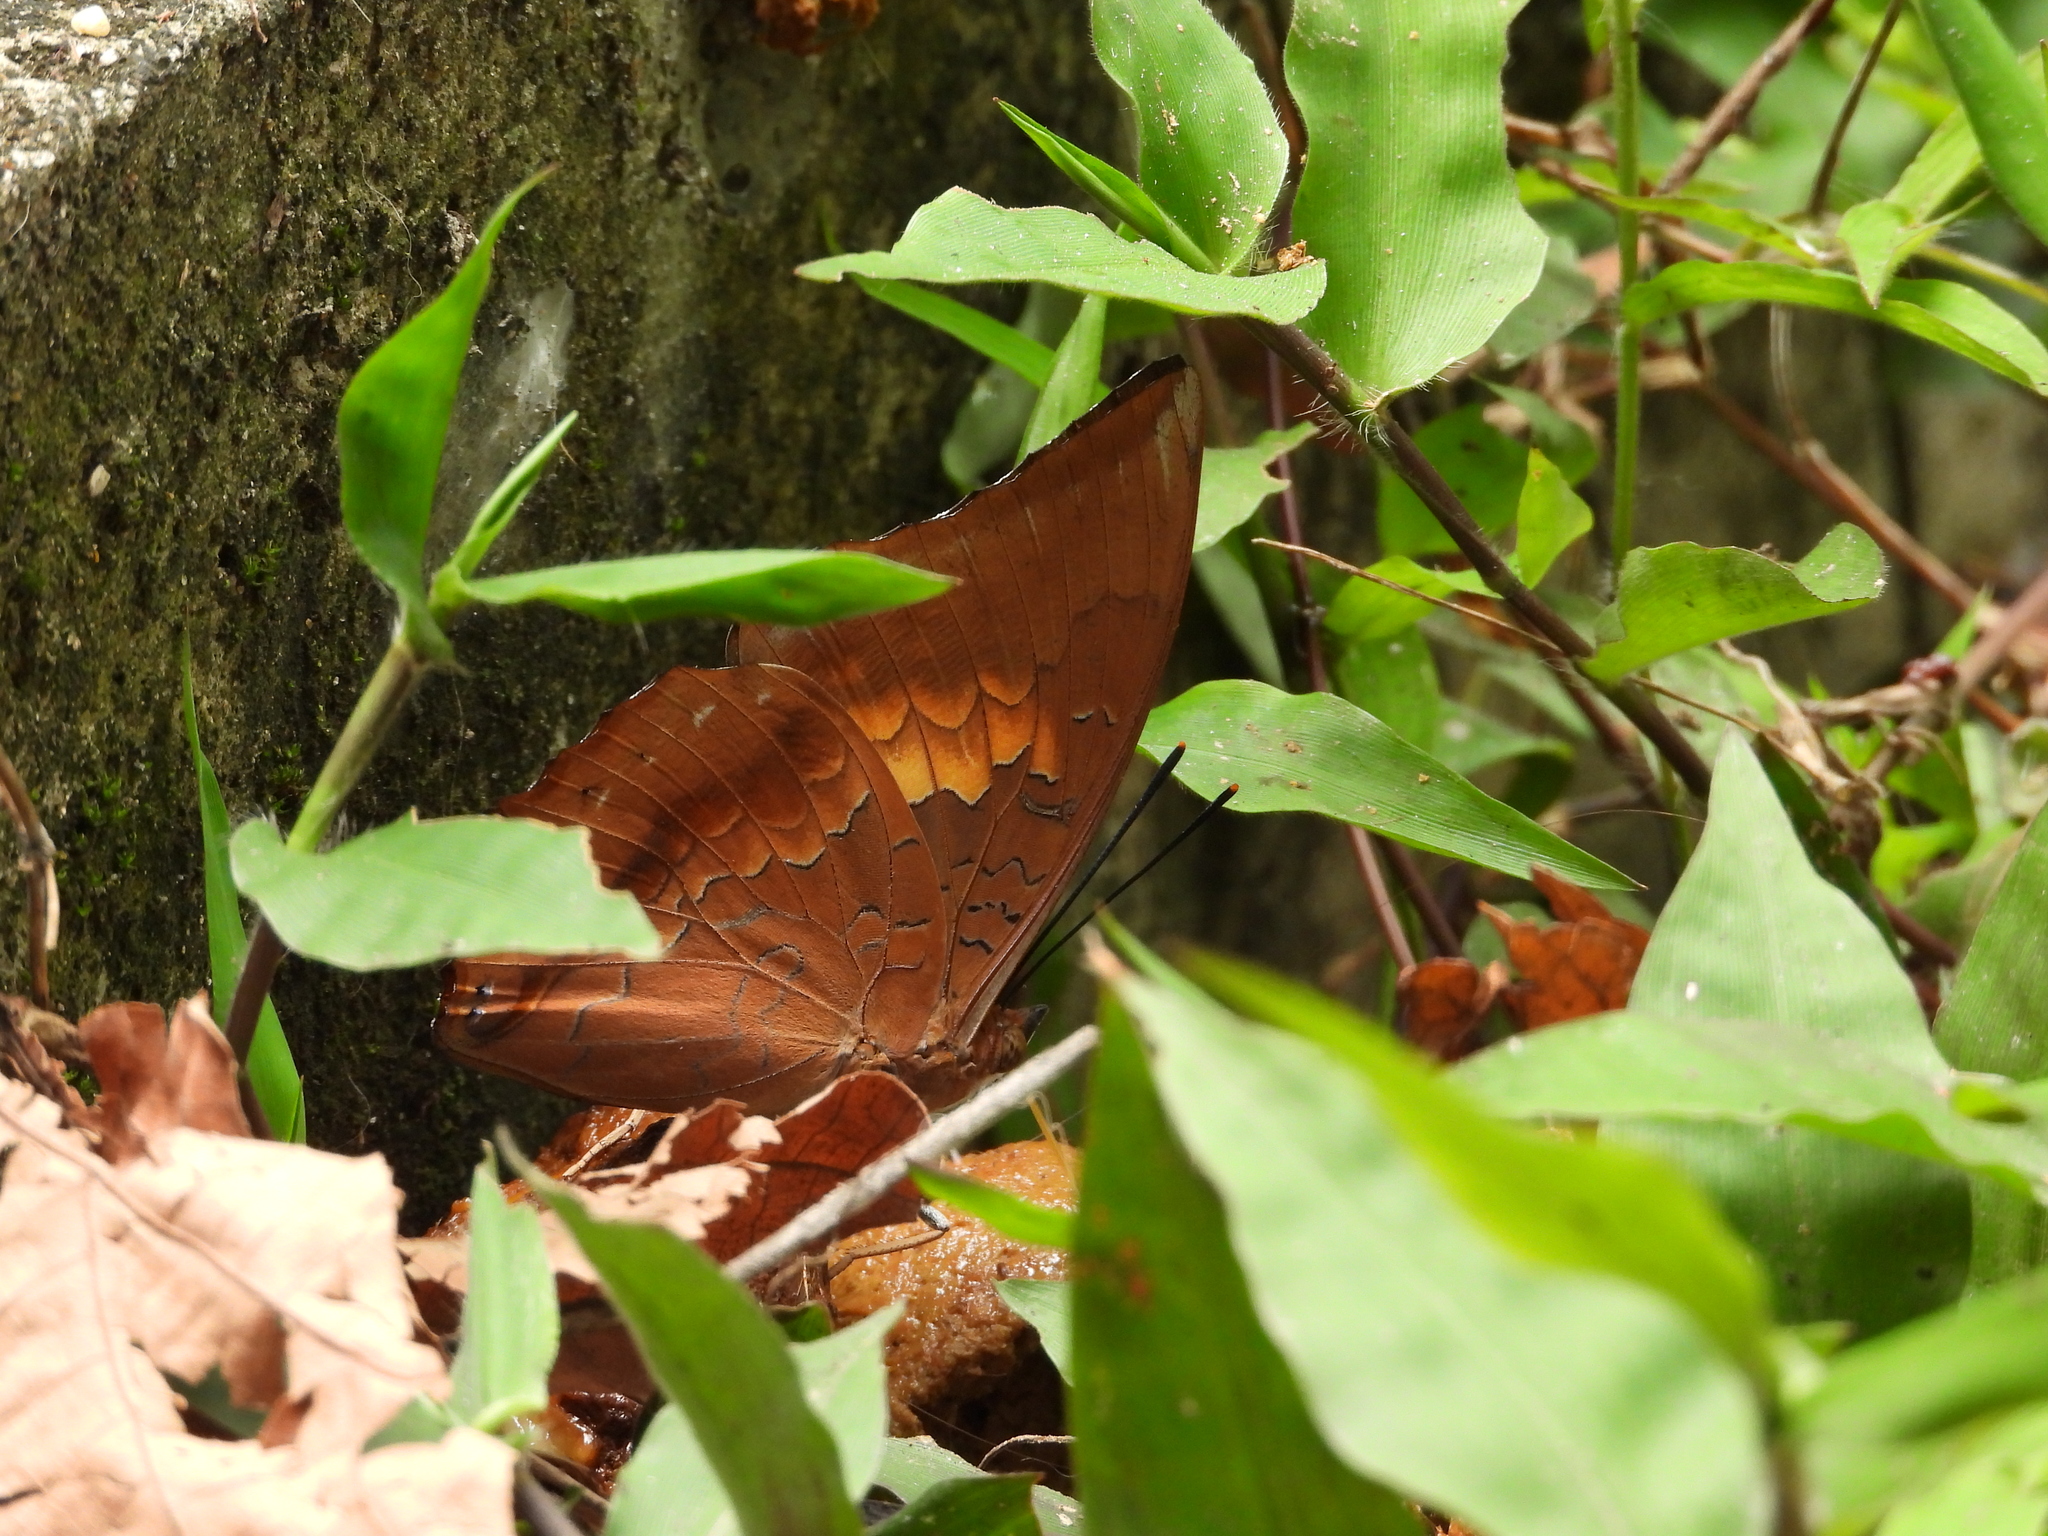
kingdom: Animalia
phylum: Arthropoda
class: Insecta
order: Lepidoptera
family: Nymphalidae
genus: Charaxes
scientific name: Charaxes bernardus
